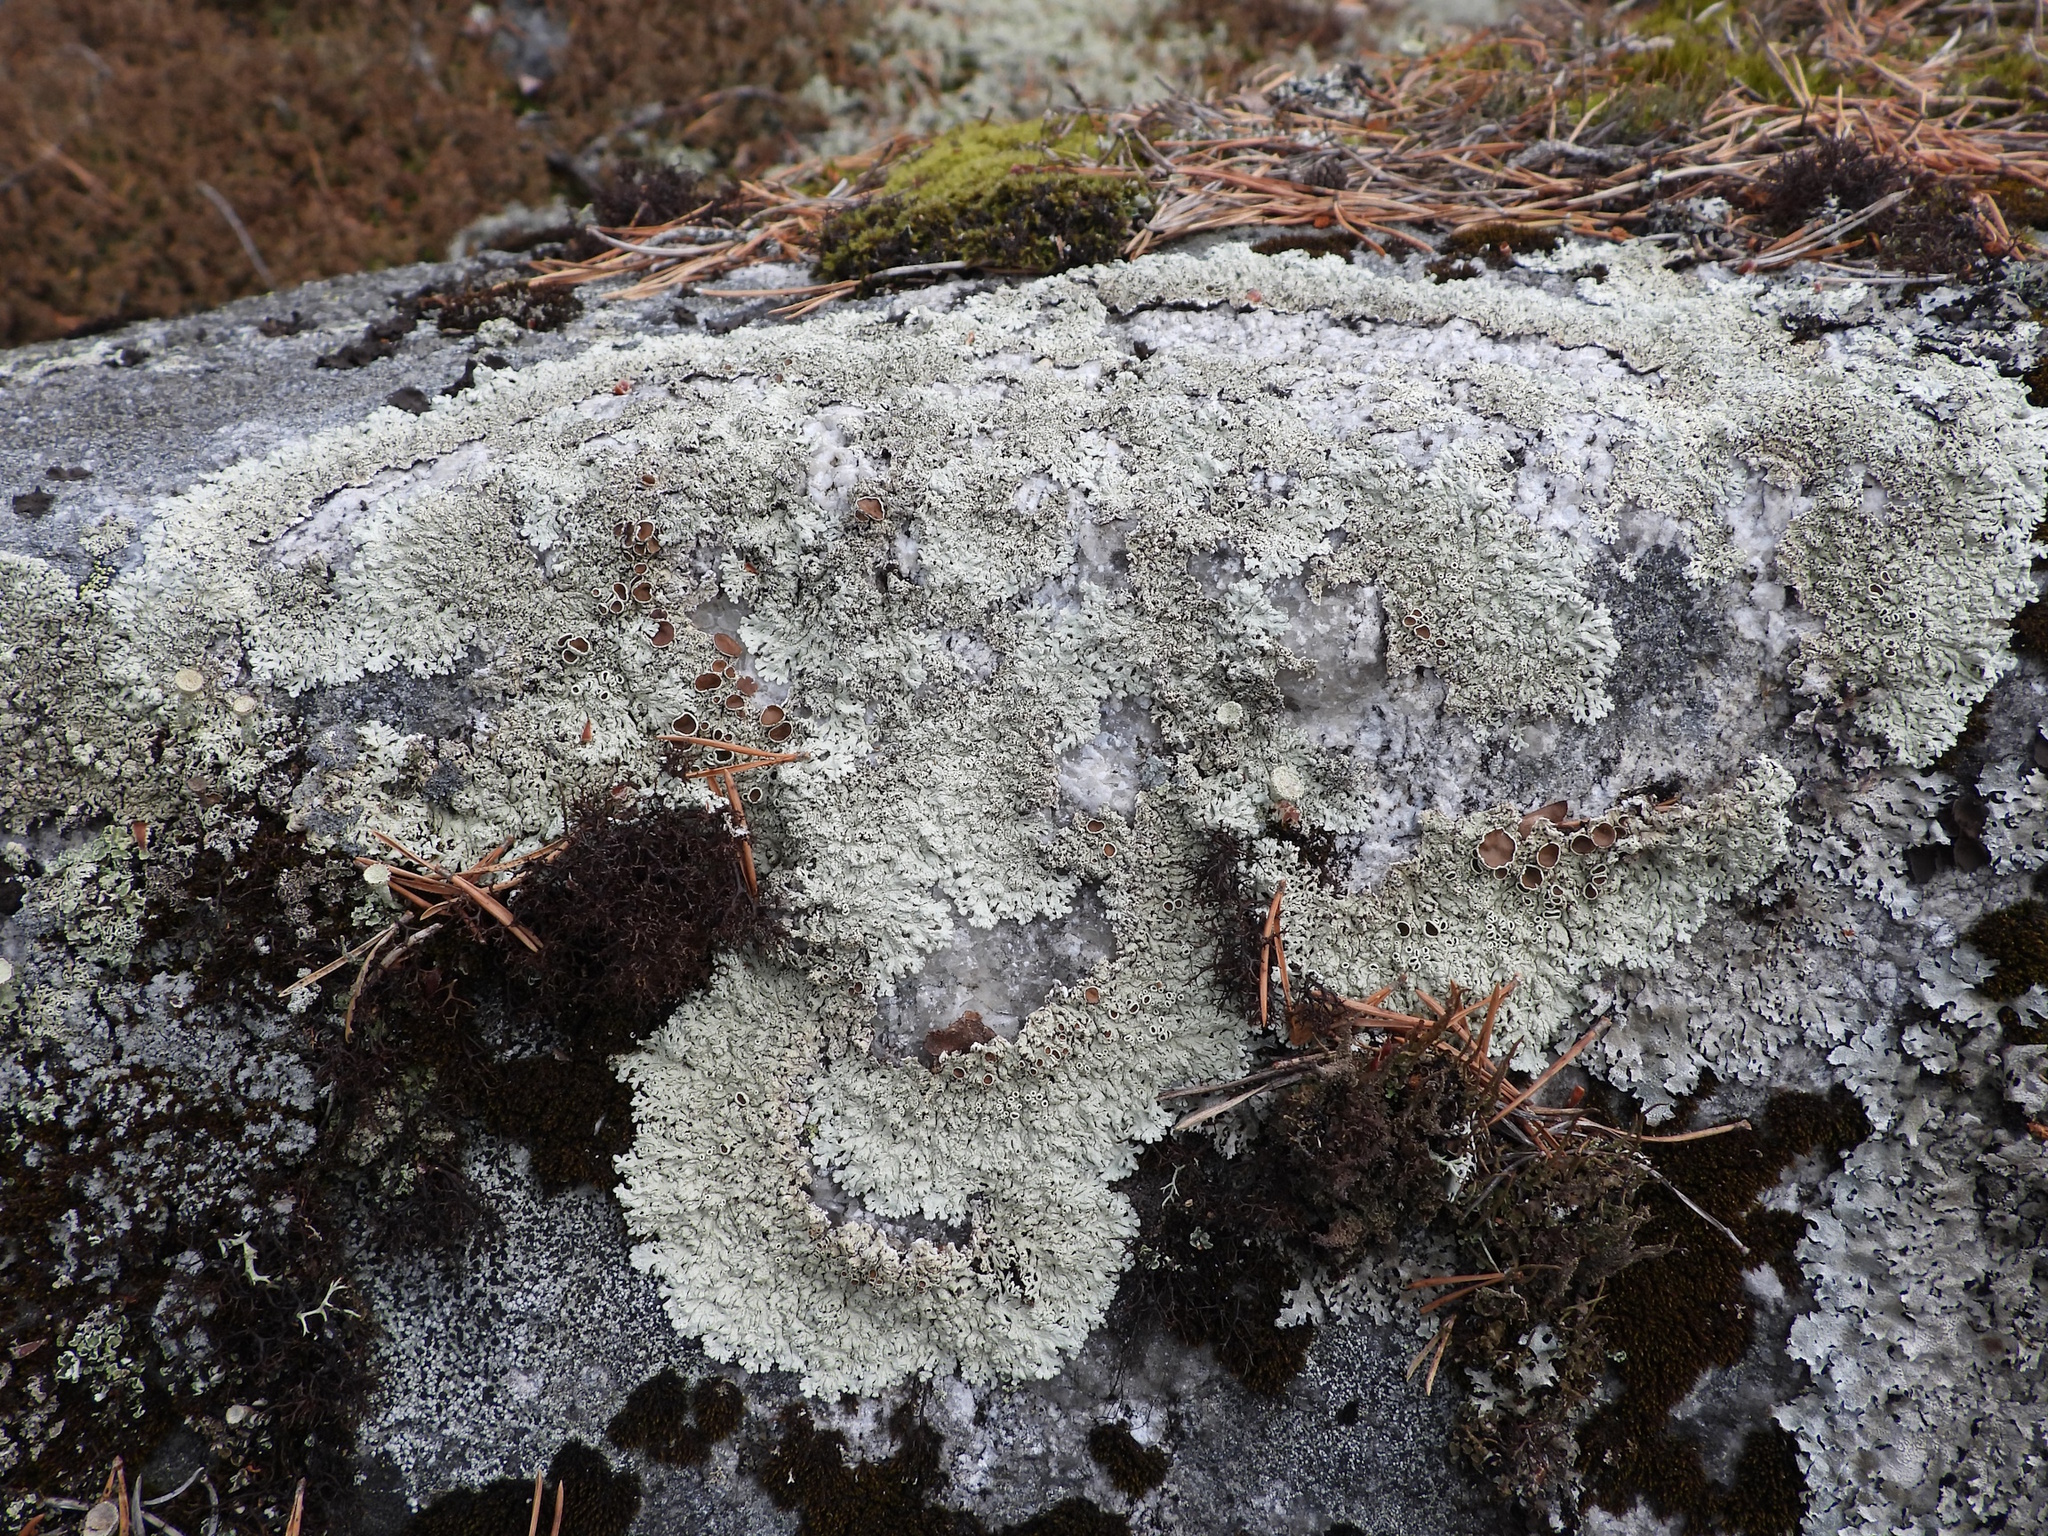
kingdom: Fungi
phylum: Ascomycota
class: Lecanoromycetes
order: Lecanorales
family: Parmeliaceae
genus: Arctoparmelia
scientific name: Arctoparmelia centrifuga
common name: Concentric ring lichen
